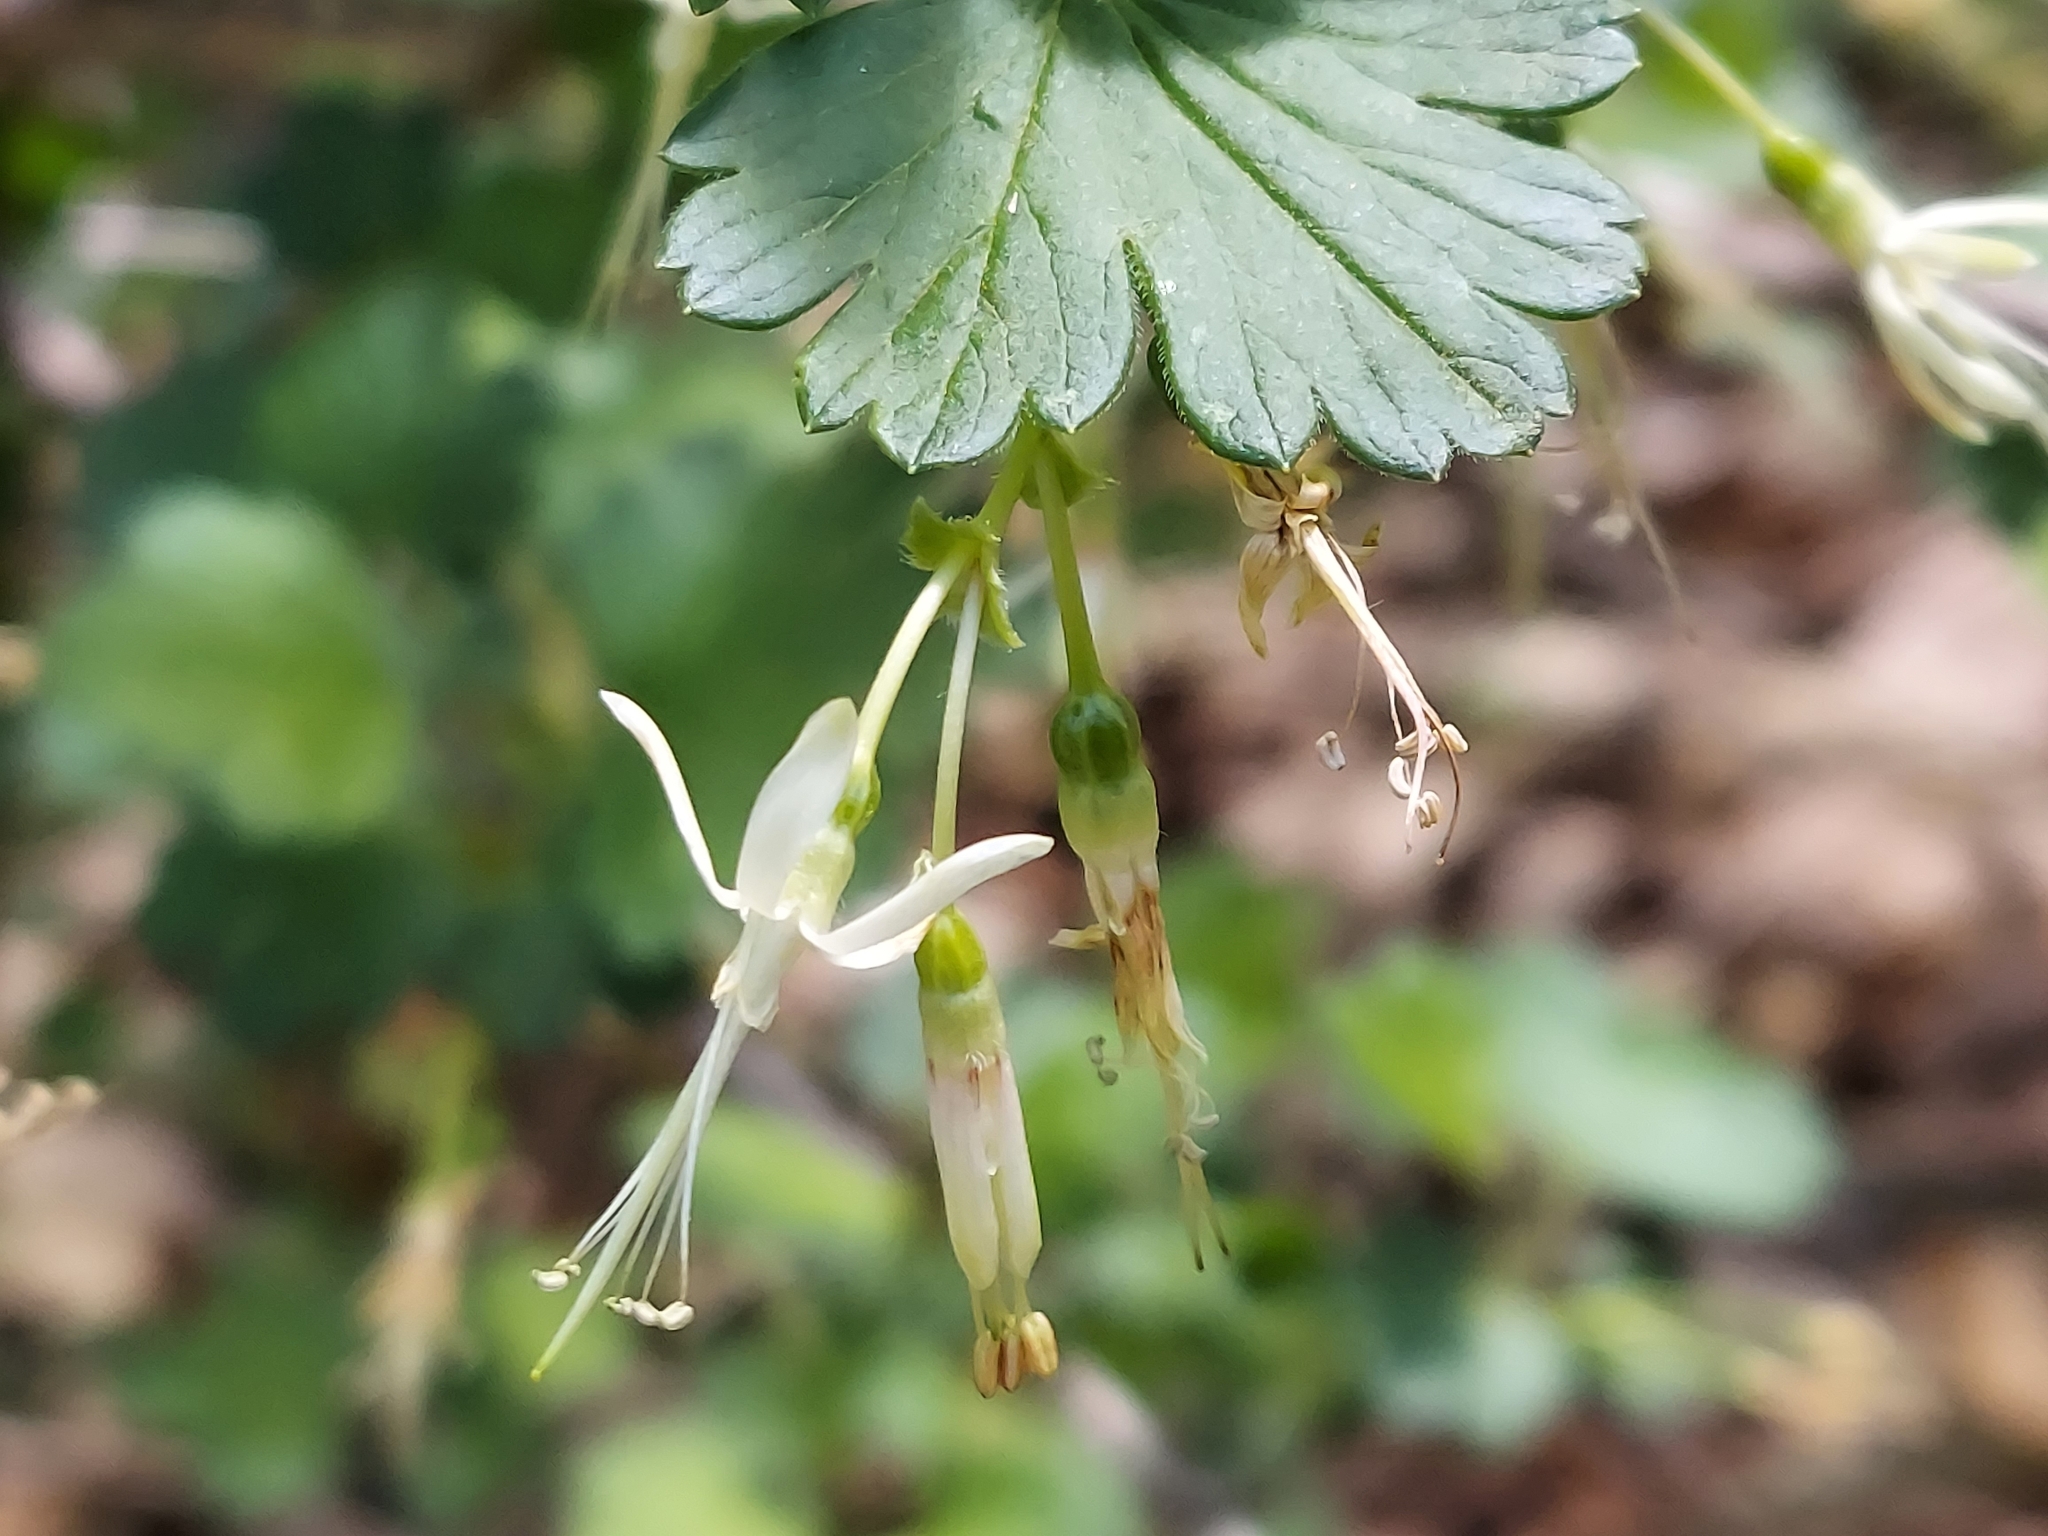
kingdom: Plantae
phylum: Tracheophyta
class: Magnoliopsida
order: Saxifragales
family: Grossulariaceae
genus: Ribes
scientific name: Ribes missouriense
